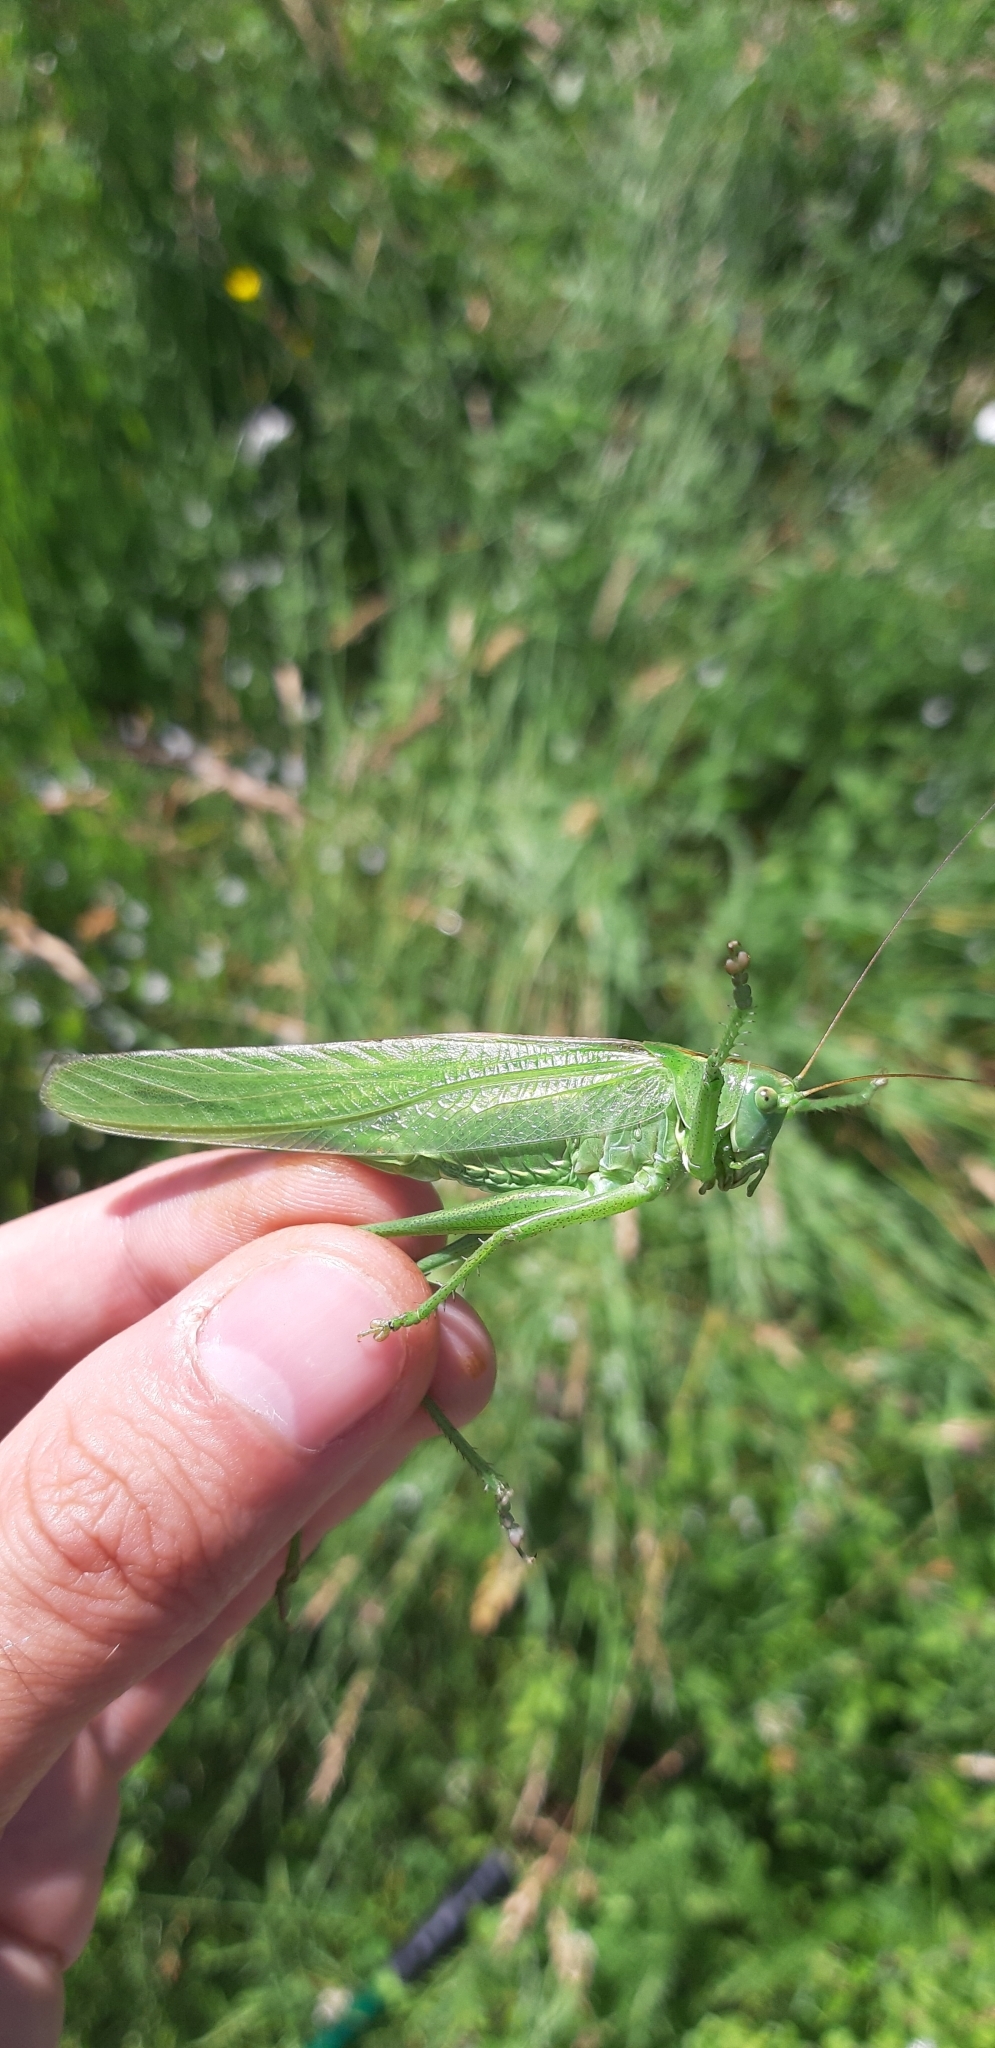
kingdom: Animalia
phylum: Arthropoda
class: Insecta
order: Orthoptera
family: Tettigoniidae
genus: Tettigonia
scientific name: Tettigonia viridissima
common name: Great green bush-cricket
